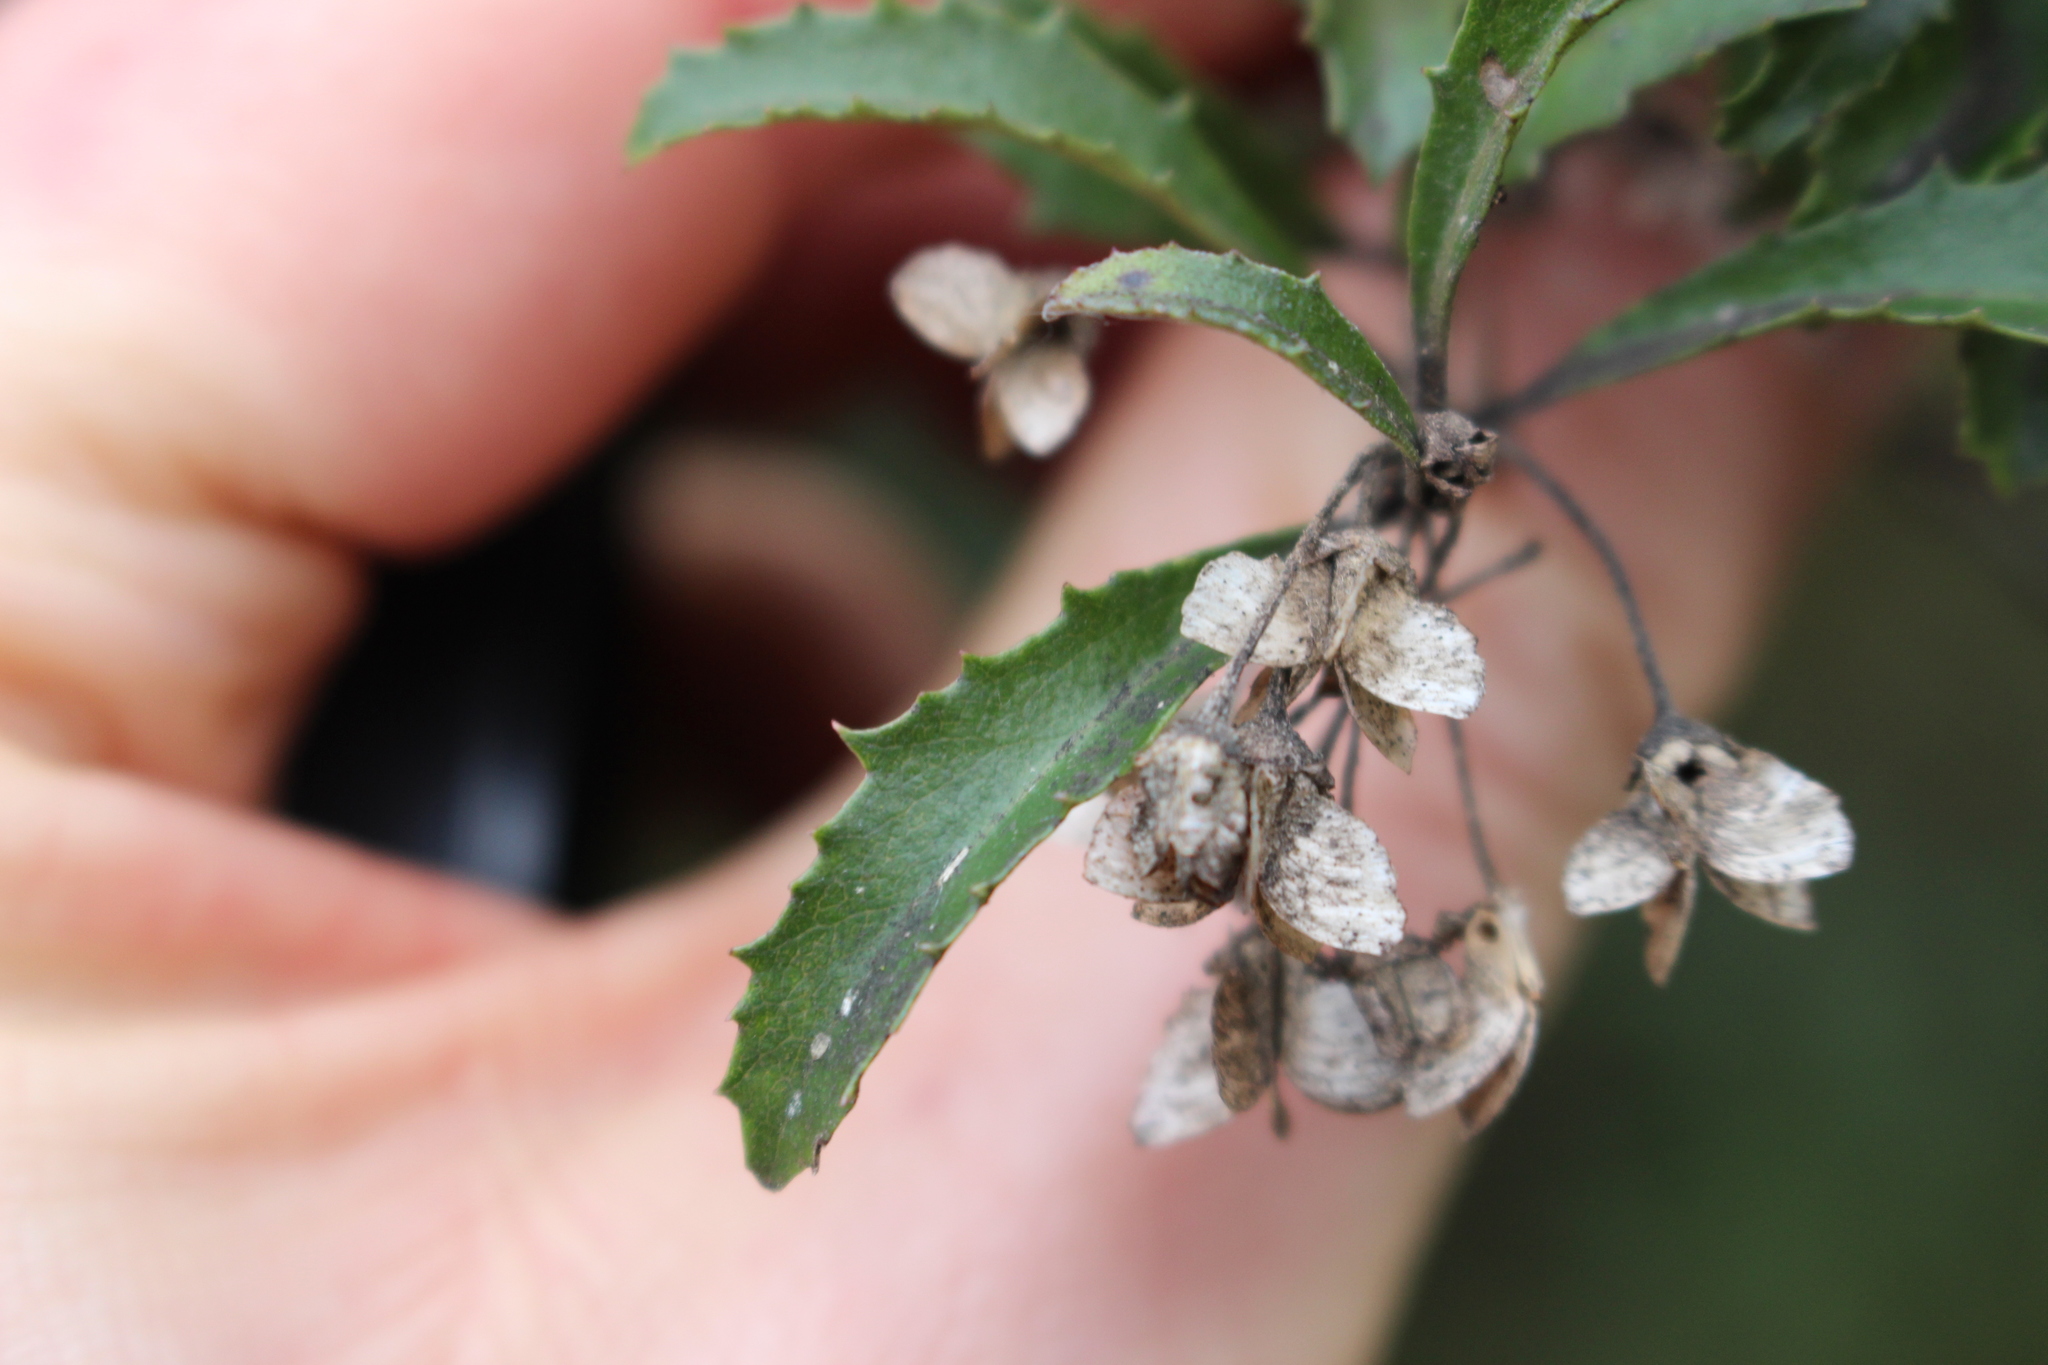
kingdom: Plantae
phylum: Tracheophyta
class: Magnoliopsida
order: Malvales
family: Malvaceae
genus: Hoheria
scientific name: Hoheria angustifolia
